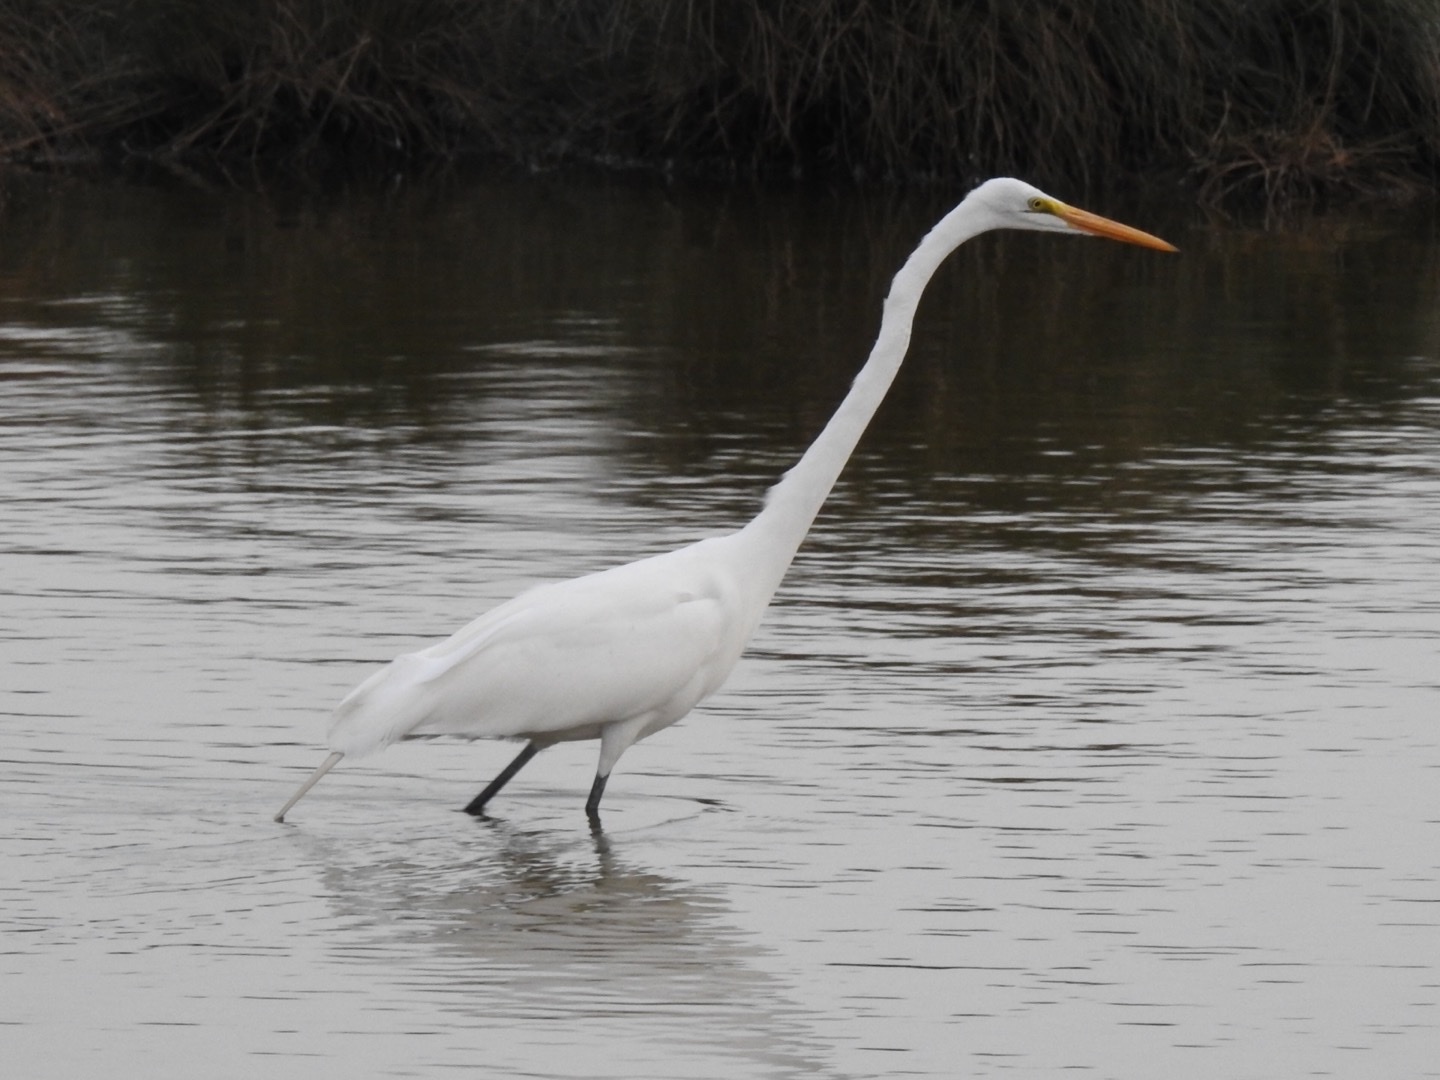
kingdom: Animalia
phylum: Chordata
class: Aves
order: Pelecaniformes
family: Ardeidae
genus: Ardea
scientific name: Ardea alba
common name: Great egret
